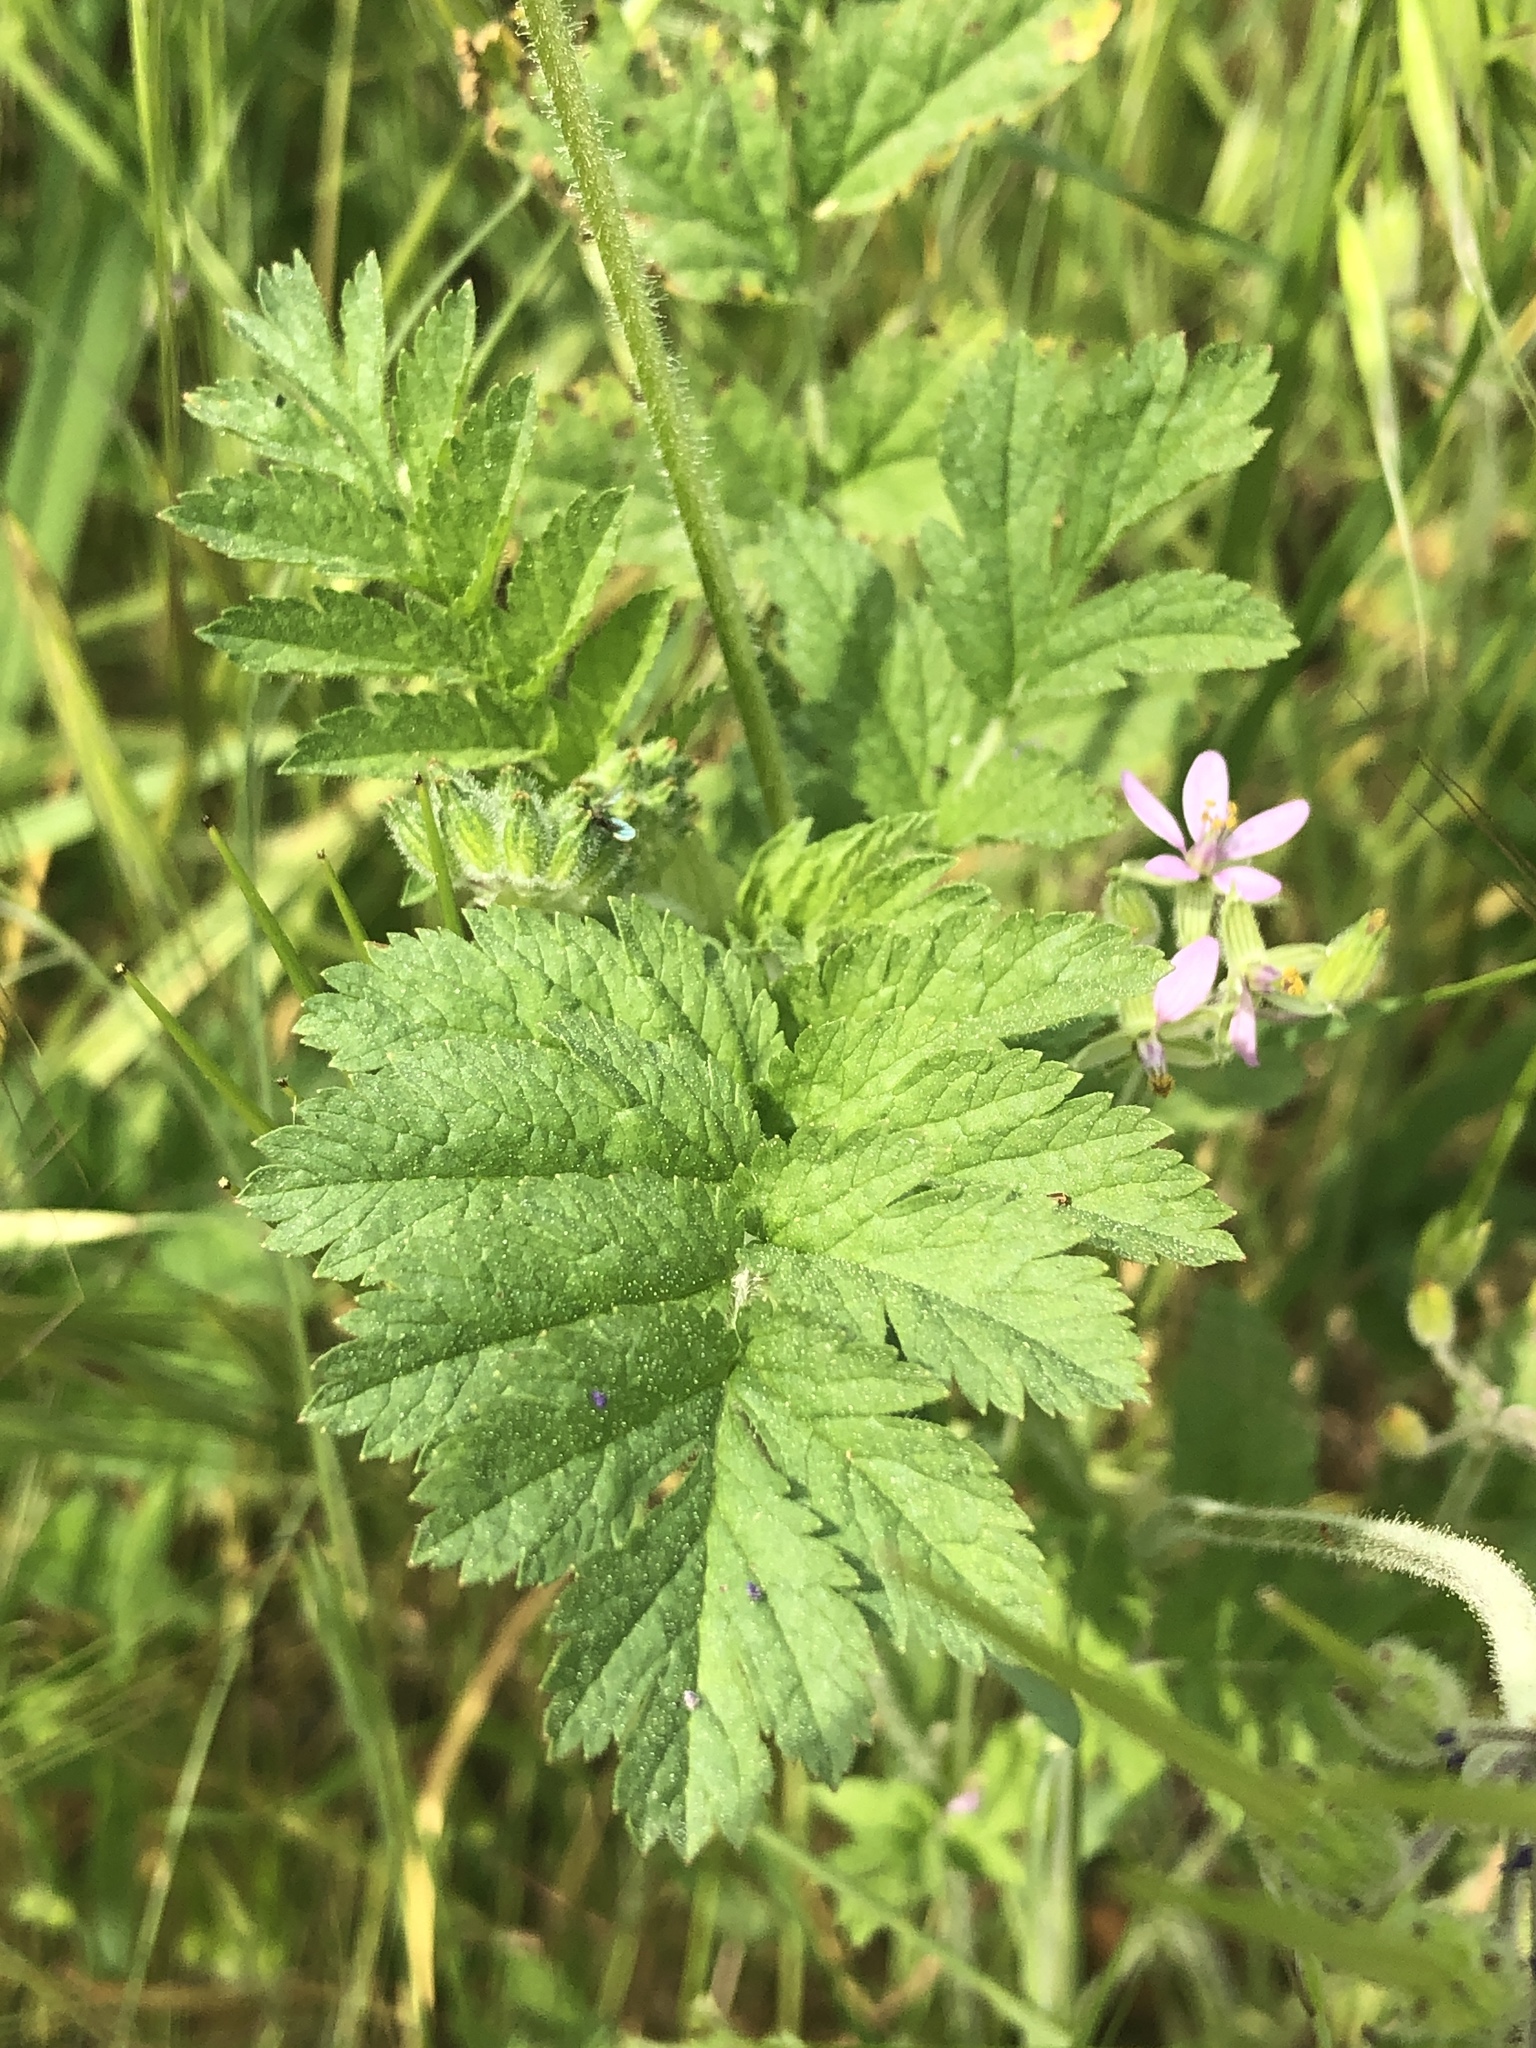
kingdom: Plantae
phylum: Tracheophyta
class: Magnoliopsida
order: Geraniales
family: Geraniaceae
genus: Erodium
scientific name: Erodium moschatum
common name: Musk stork's-bill
